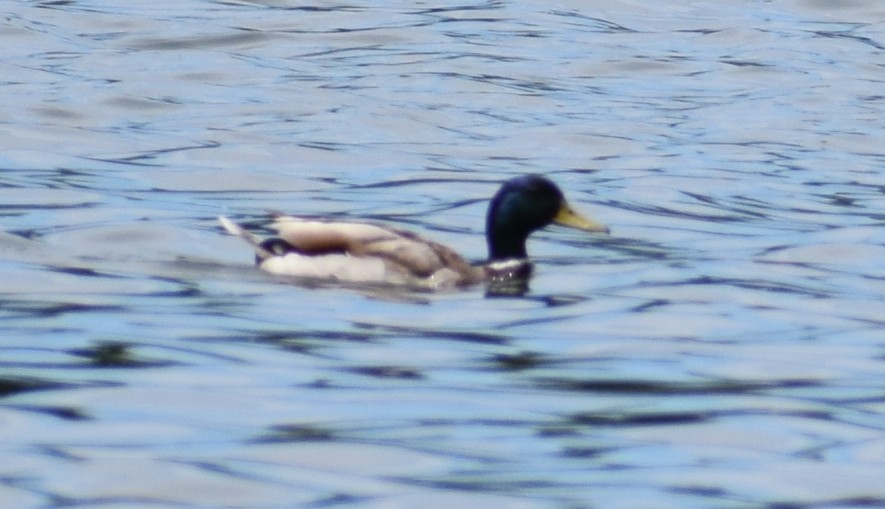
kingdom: Animalia
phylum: Chordata
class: Aves
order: Anseriformes
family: Anatidae
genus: Anas
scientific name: Anas platyrhynchos
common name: Mallard
